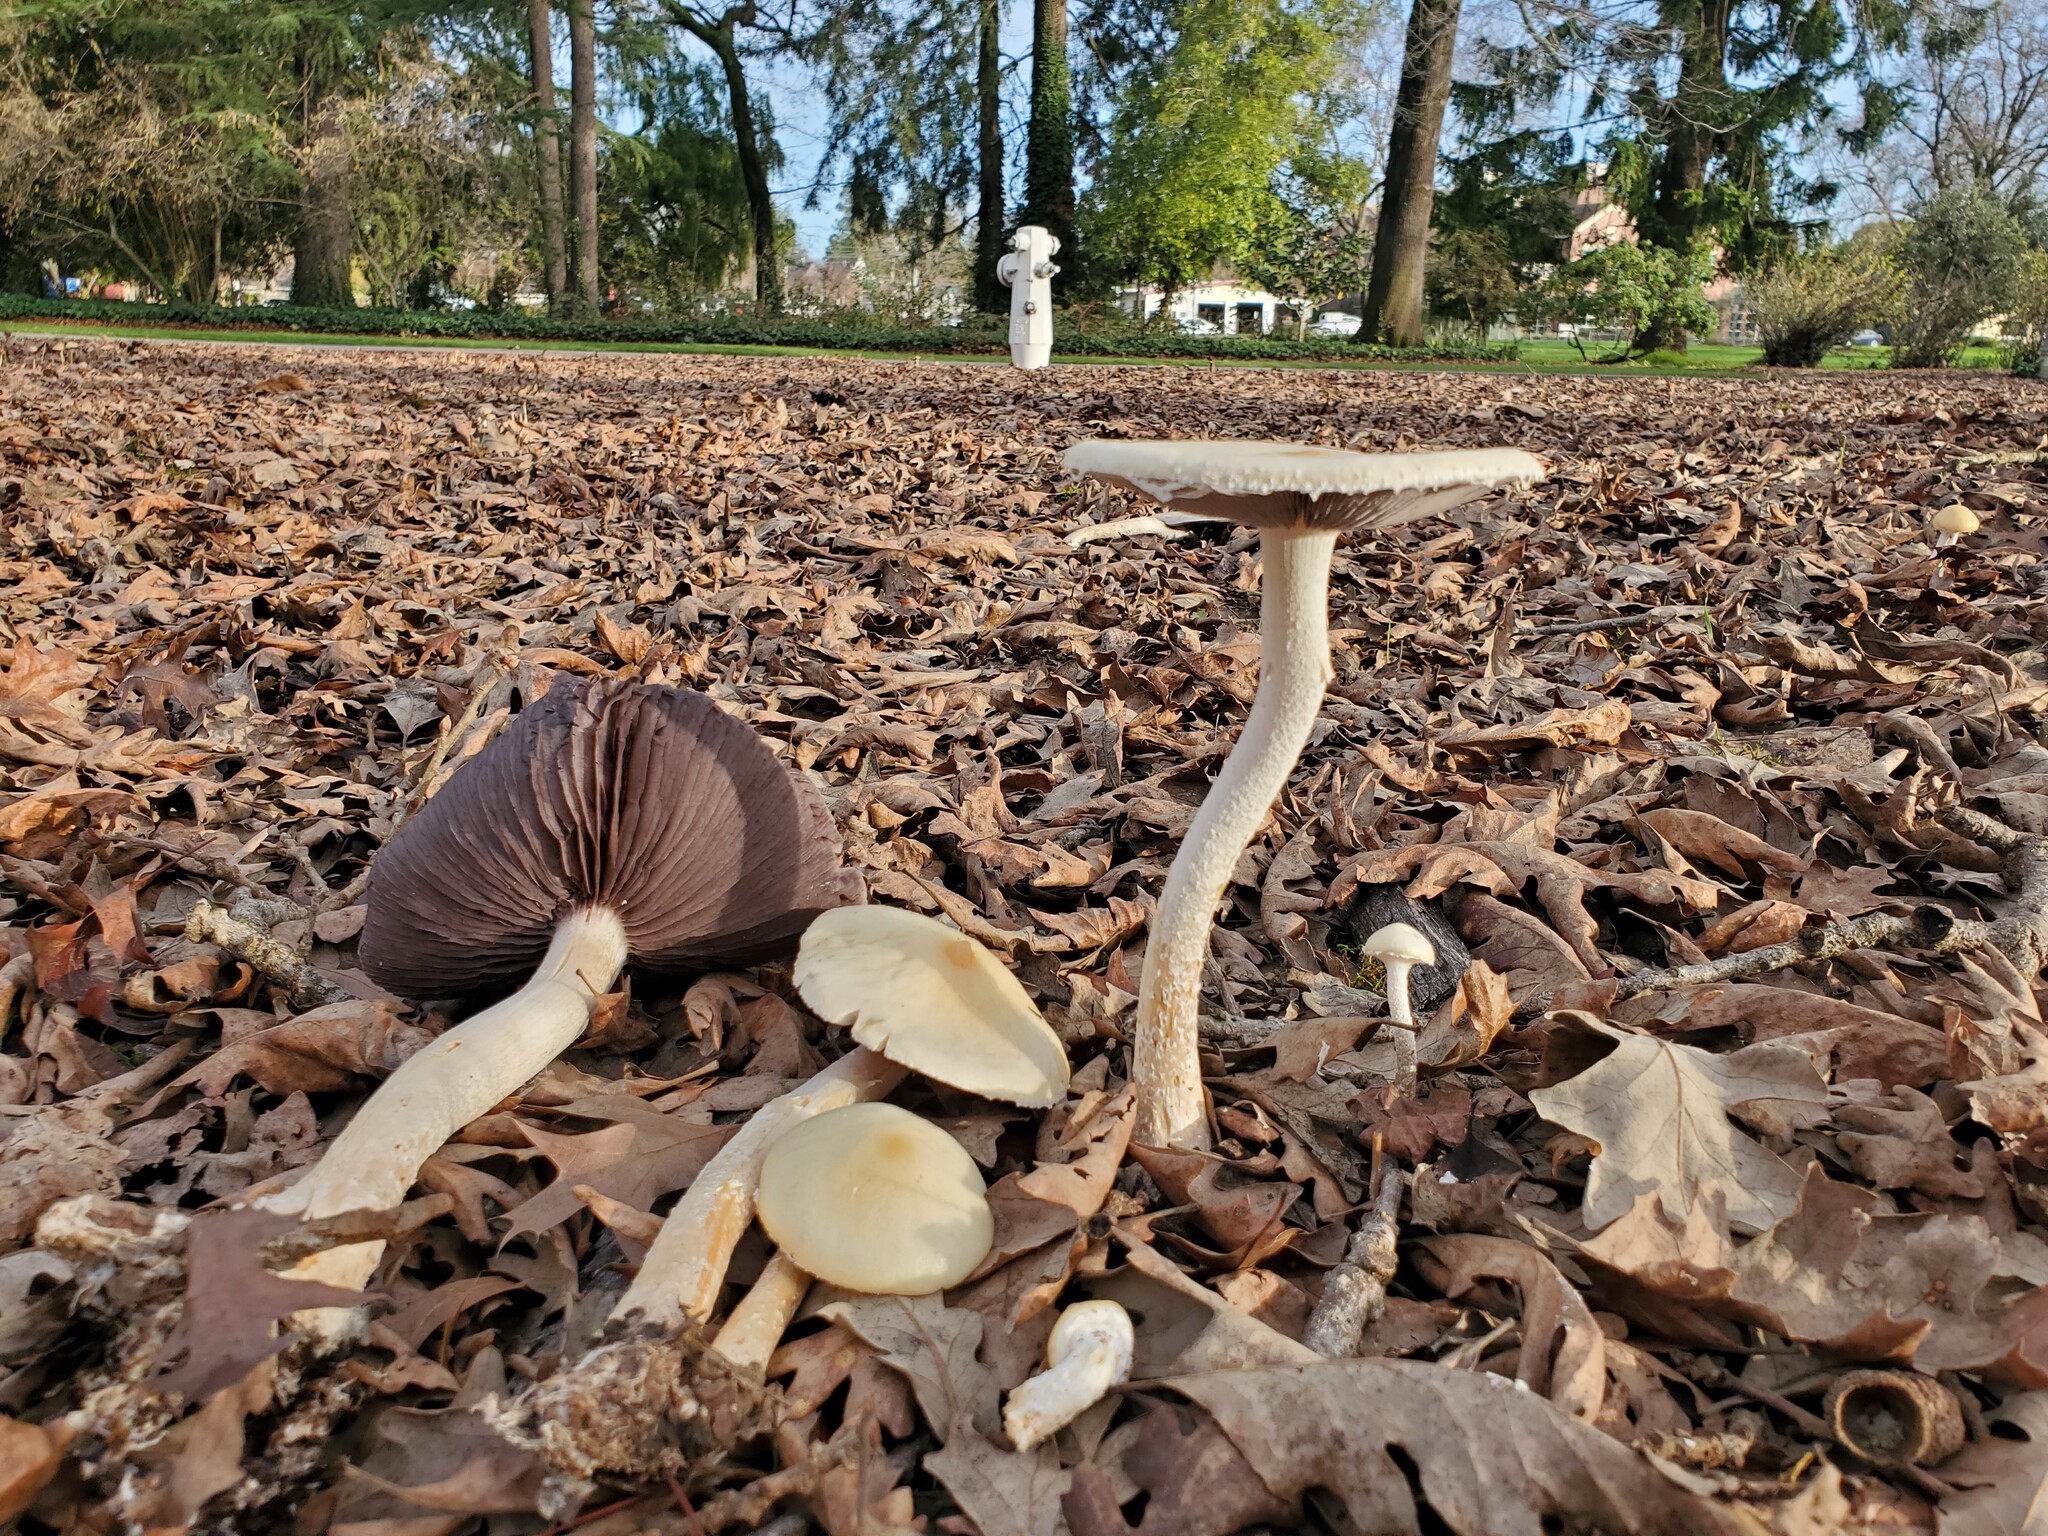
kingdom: Fungi
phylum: Basidiomycota
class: Agaricomycetes
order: Agaricales
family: Strophariaceae
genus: Stropharia
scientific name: Stropharia ambigua
